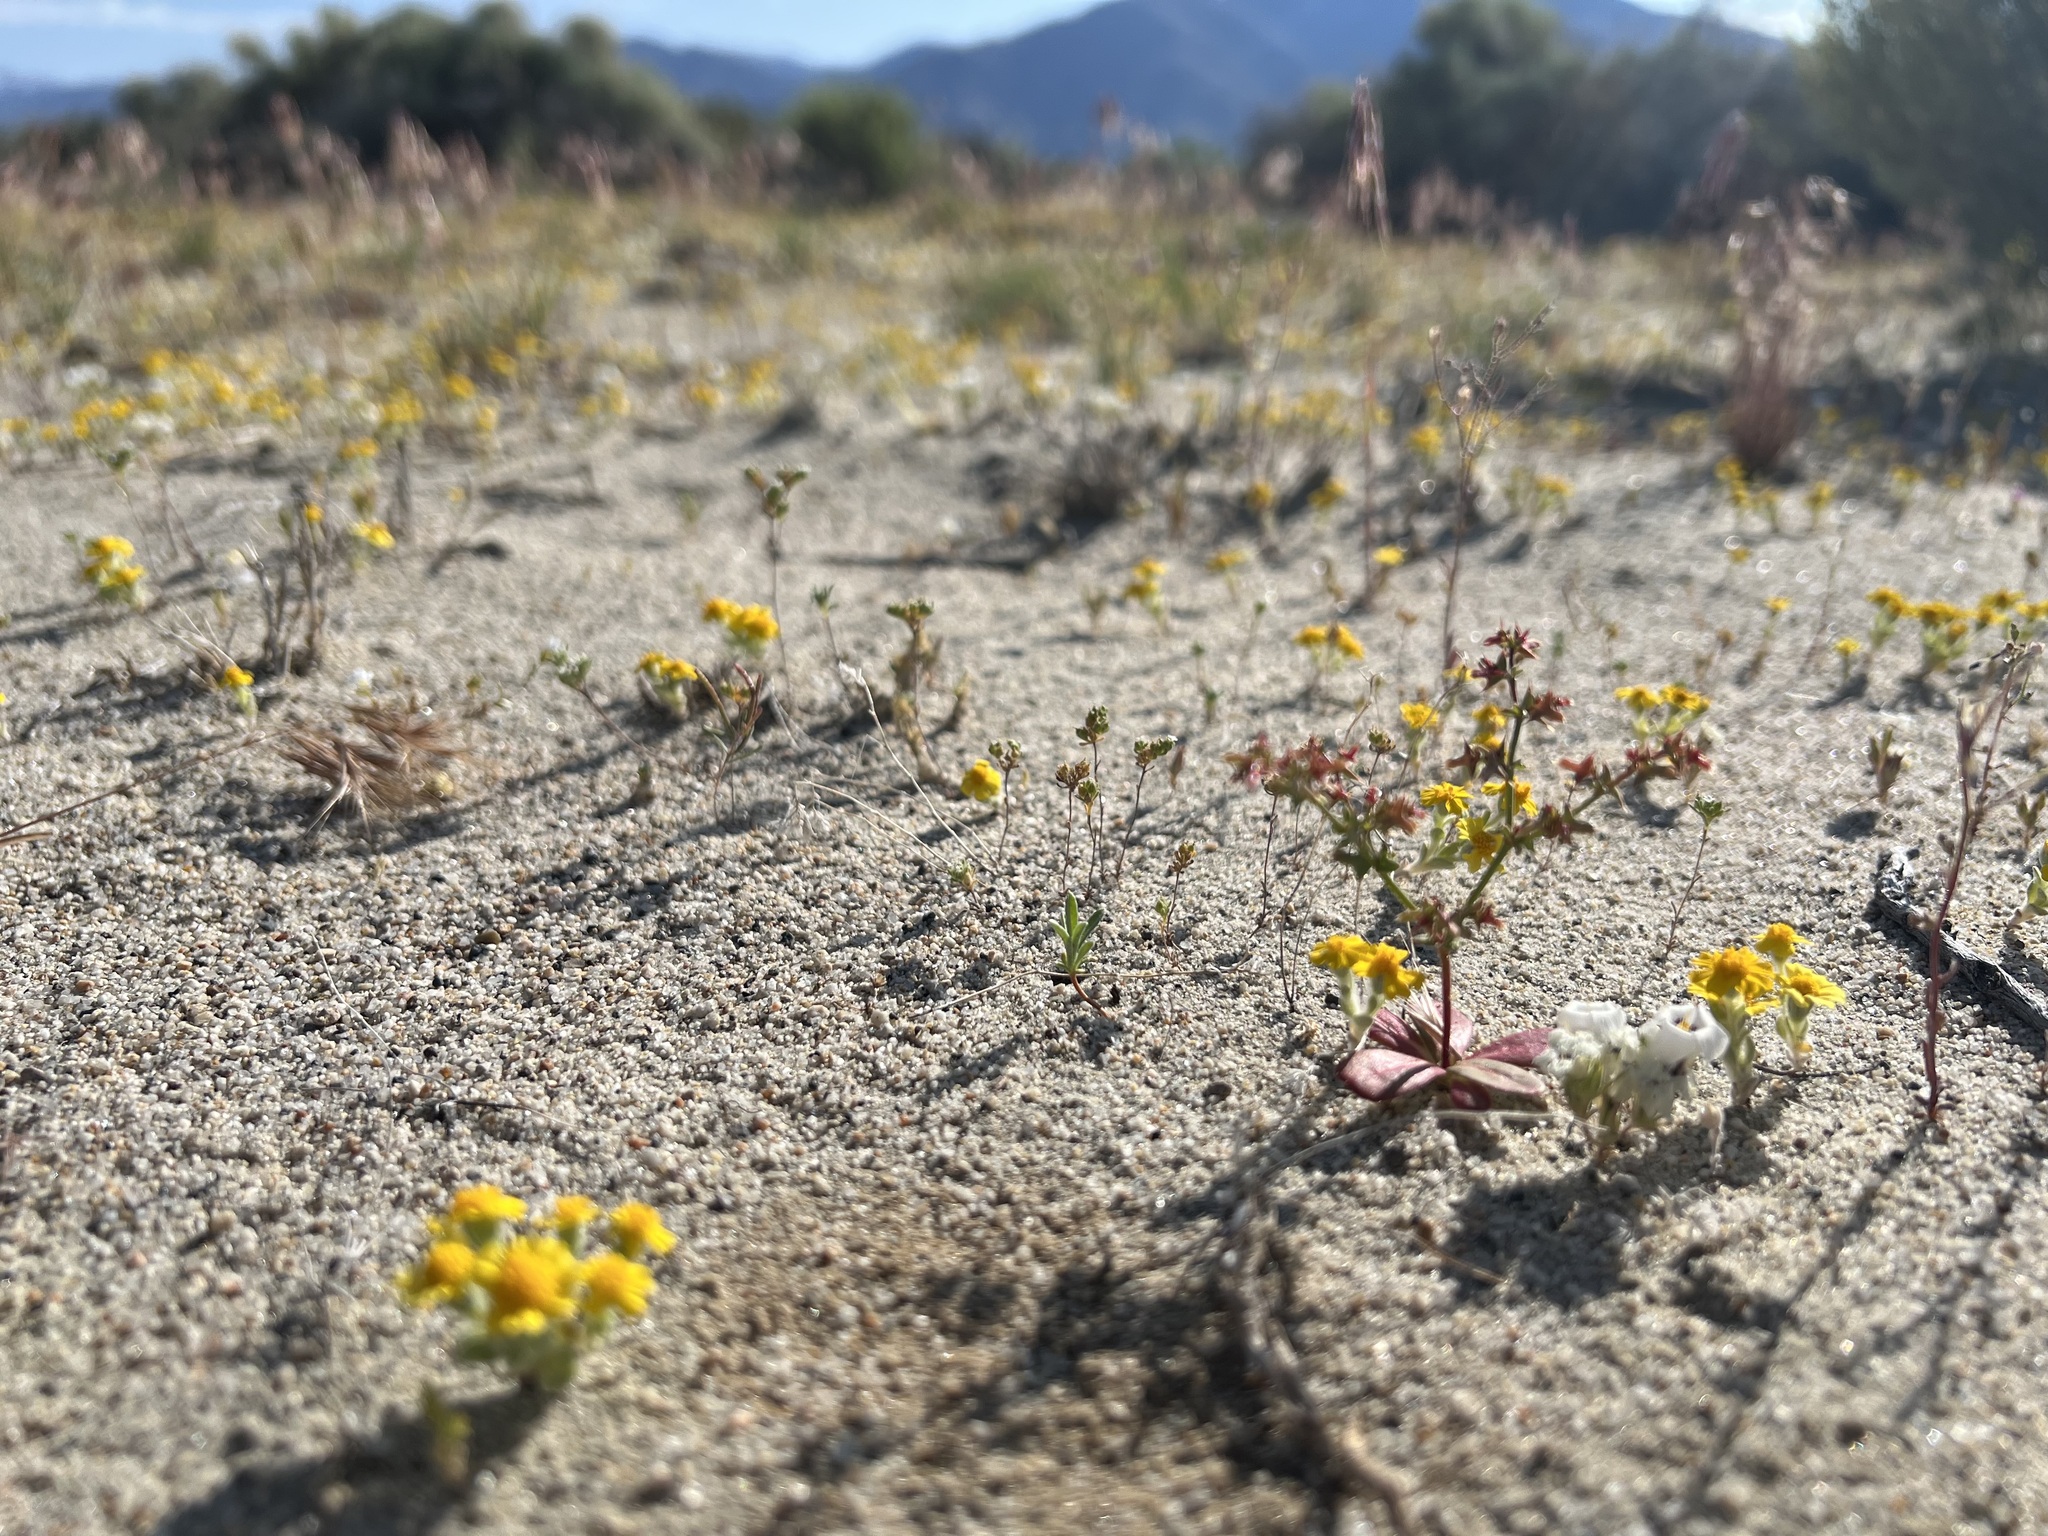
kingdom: Plantae
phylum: Tracheophyta
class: Magnoliopsida
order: Asterales
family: Asteraceae
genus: Eriophyllum
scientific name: Eriophyllum wallacei
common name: Wallace's woolly daisy
